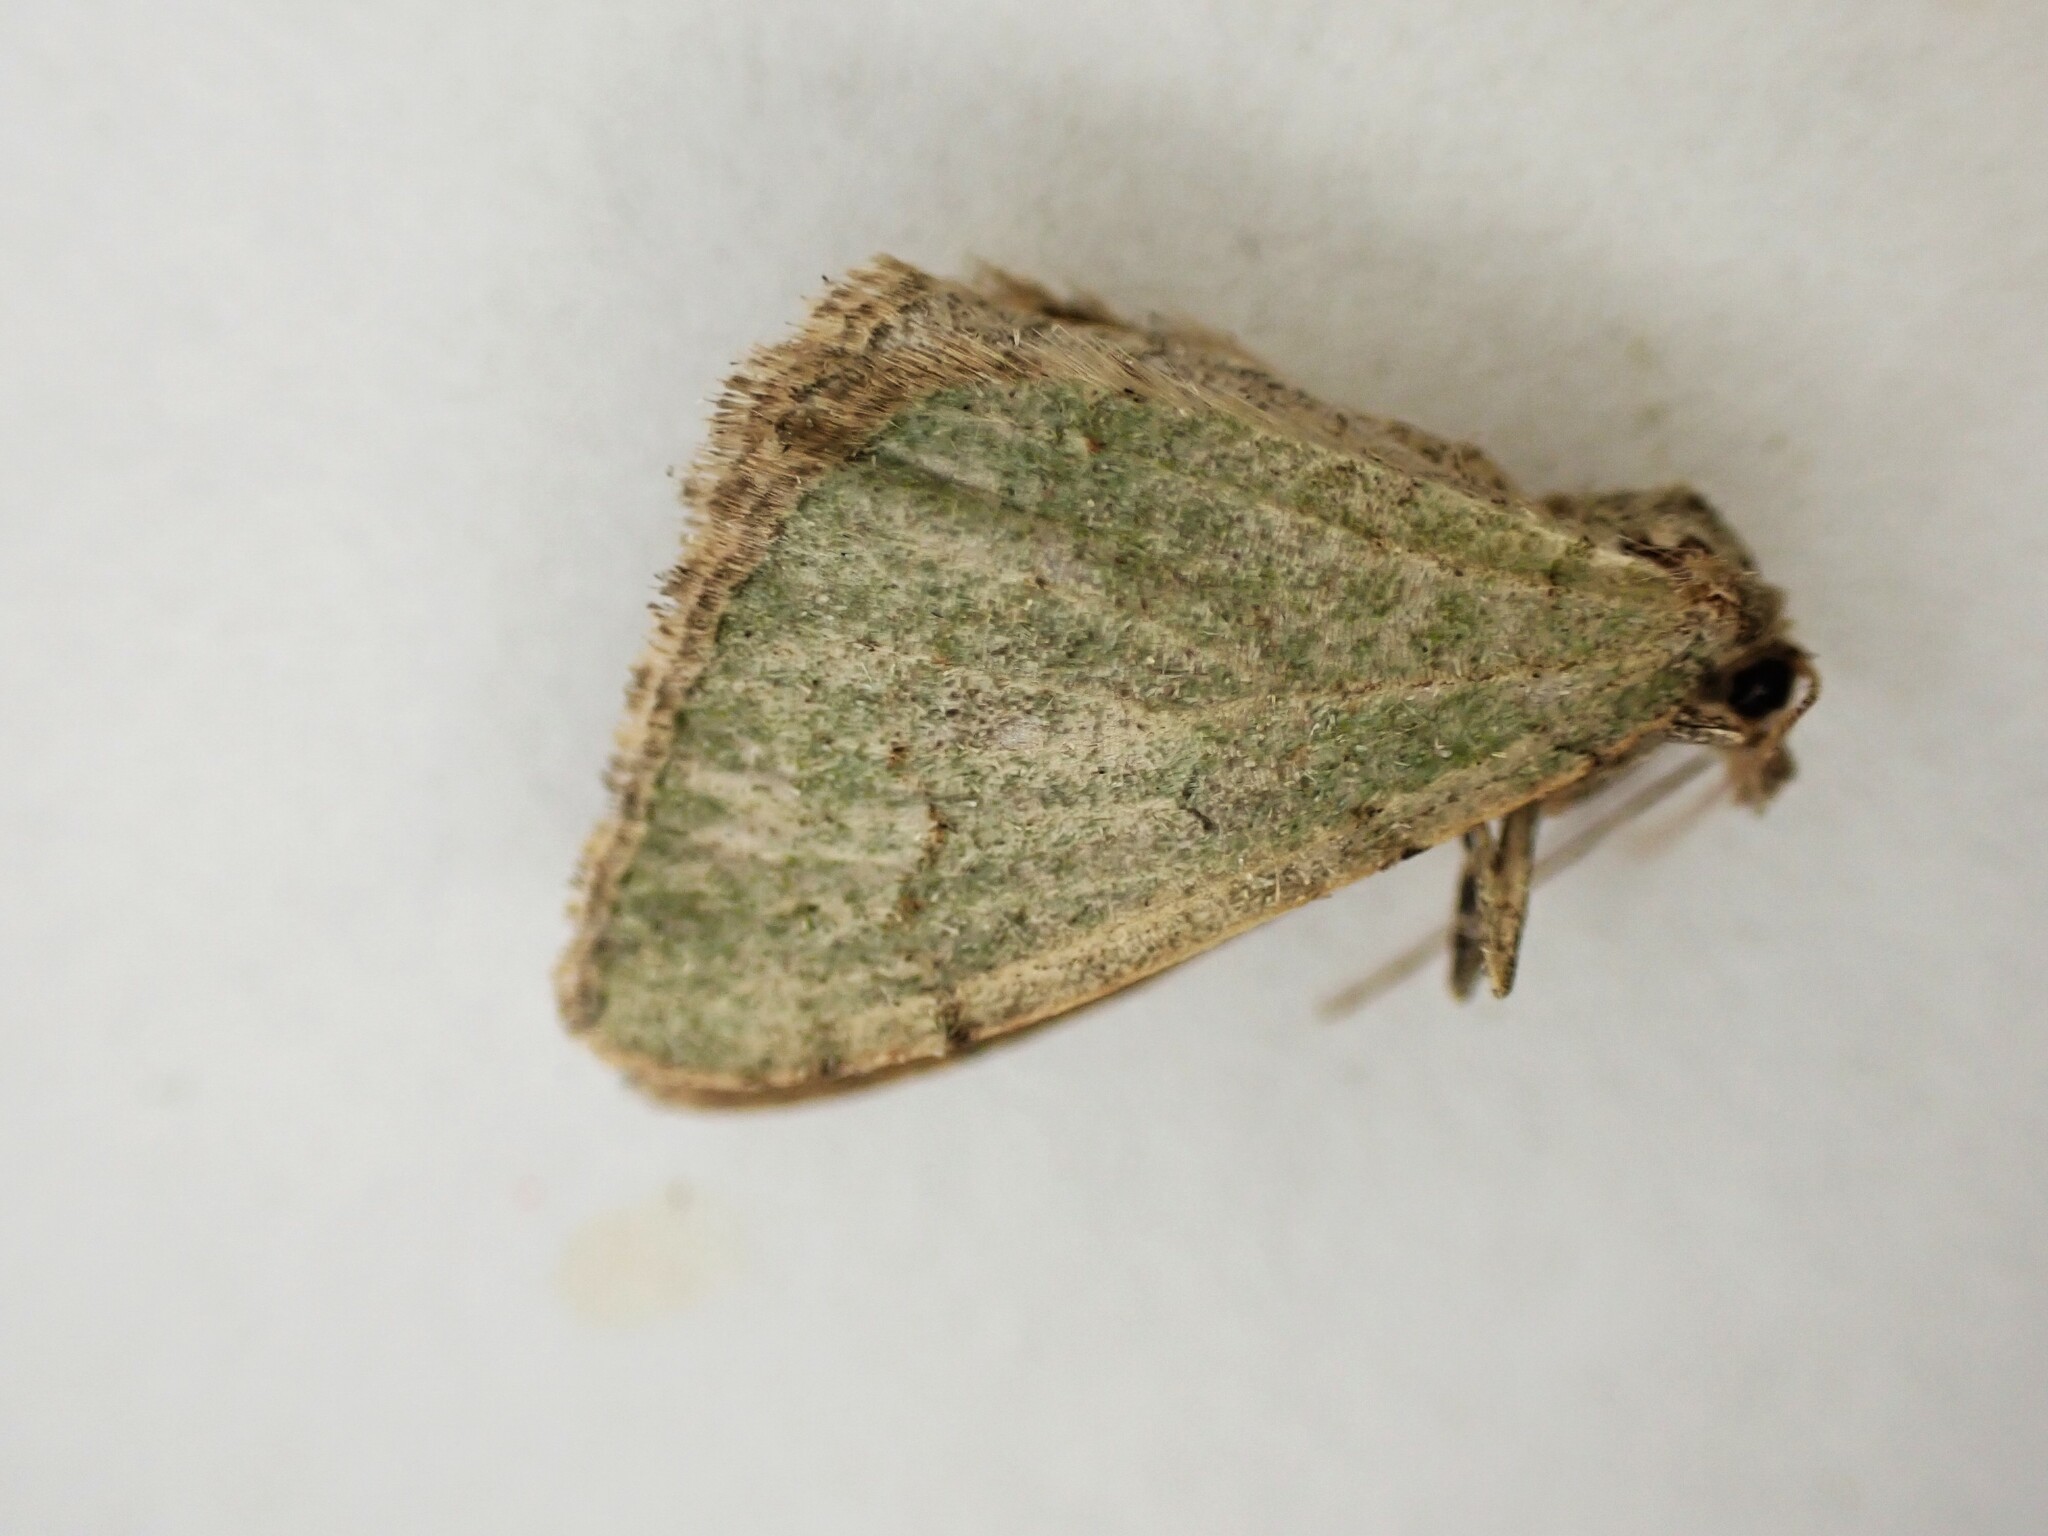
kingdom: Animalia
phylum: Arthropoda
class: Insecta
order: Lepidoptera
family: Geometridae
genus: Epyaxa
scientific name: Epyaxa rosearia
